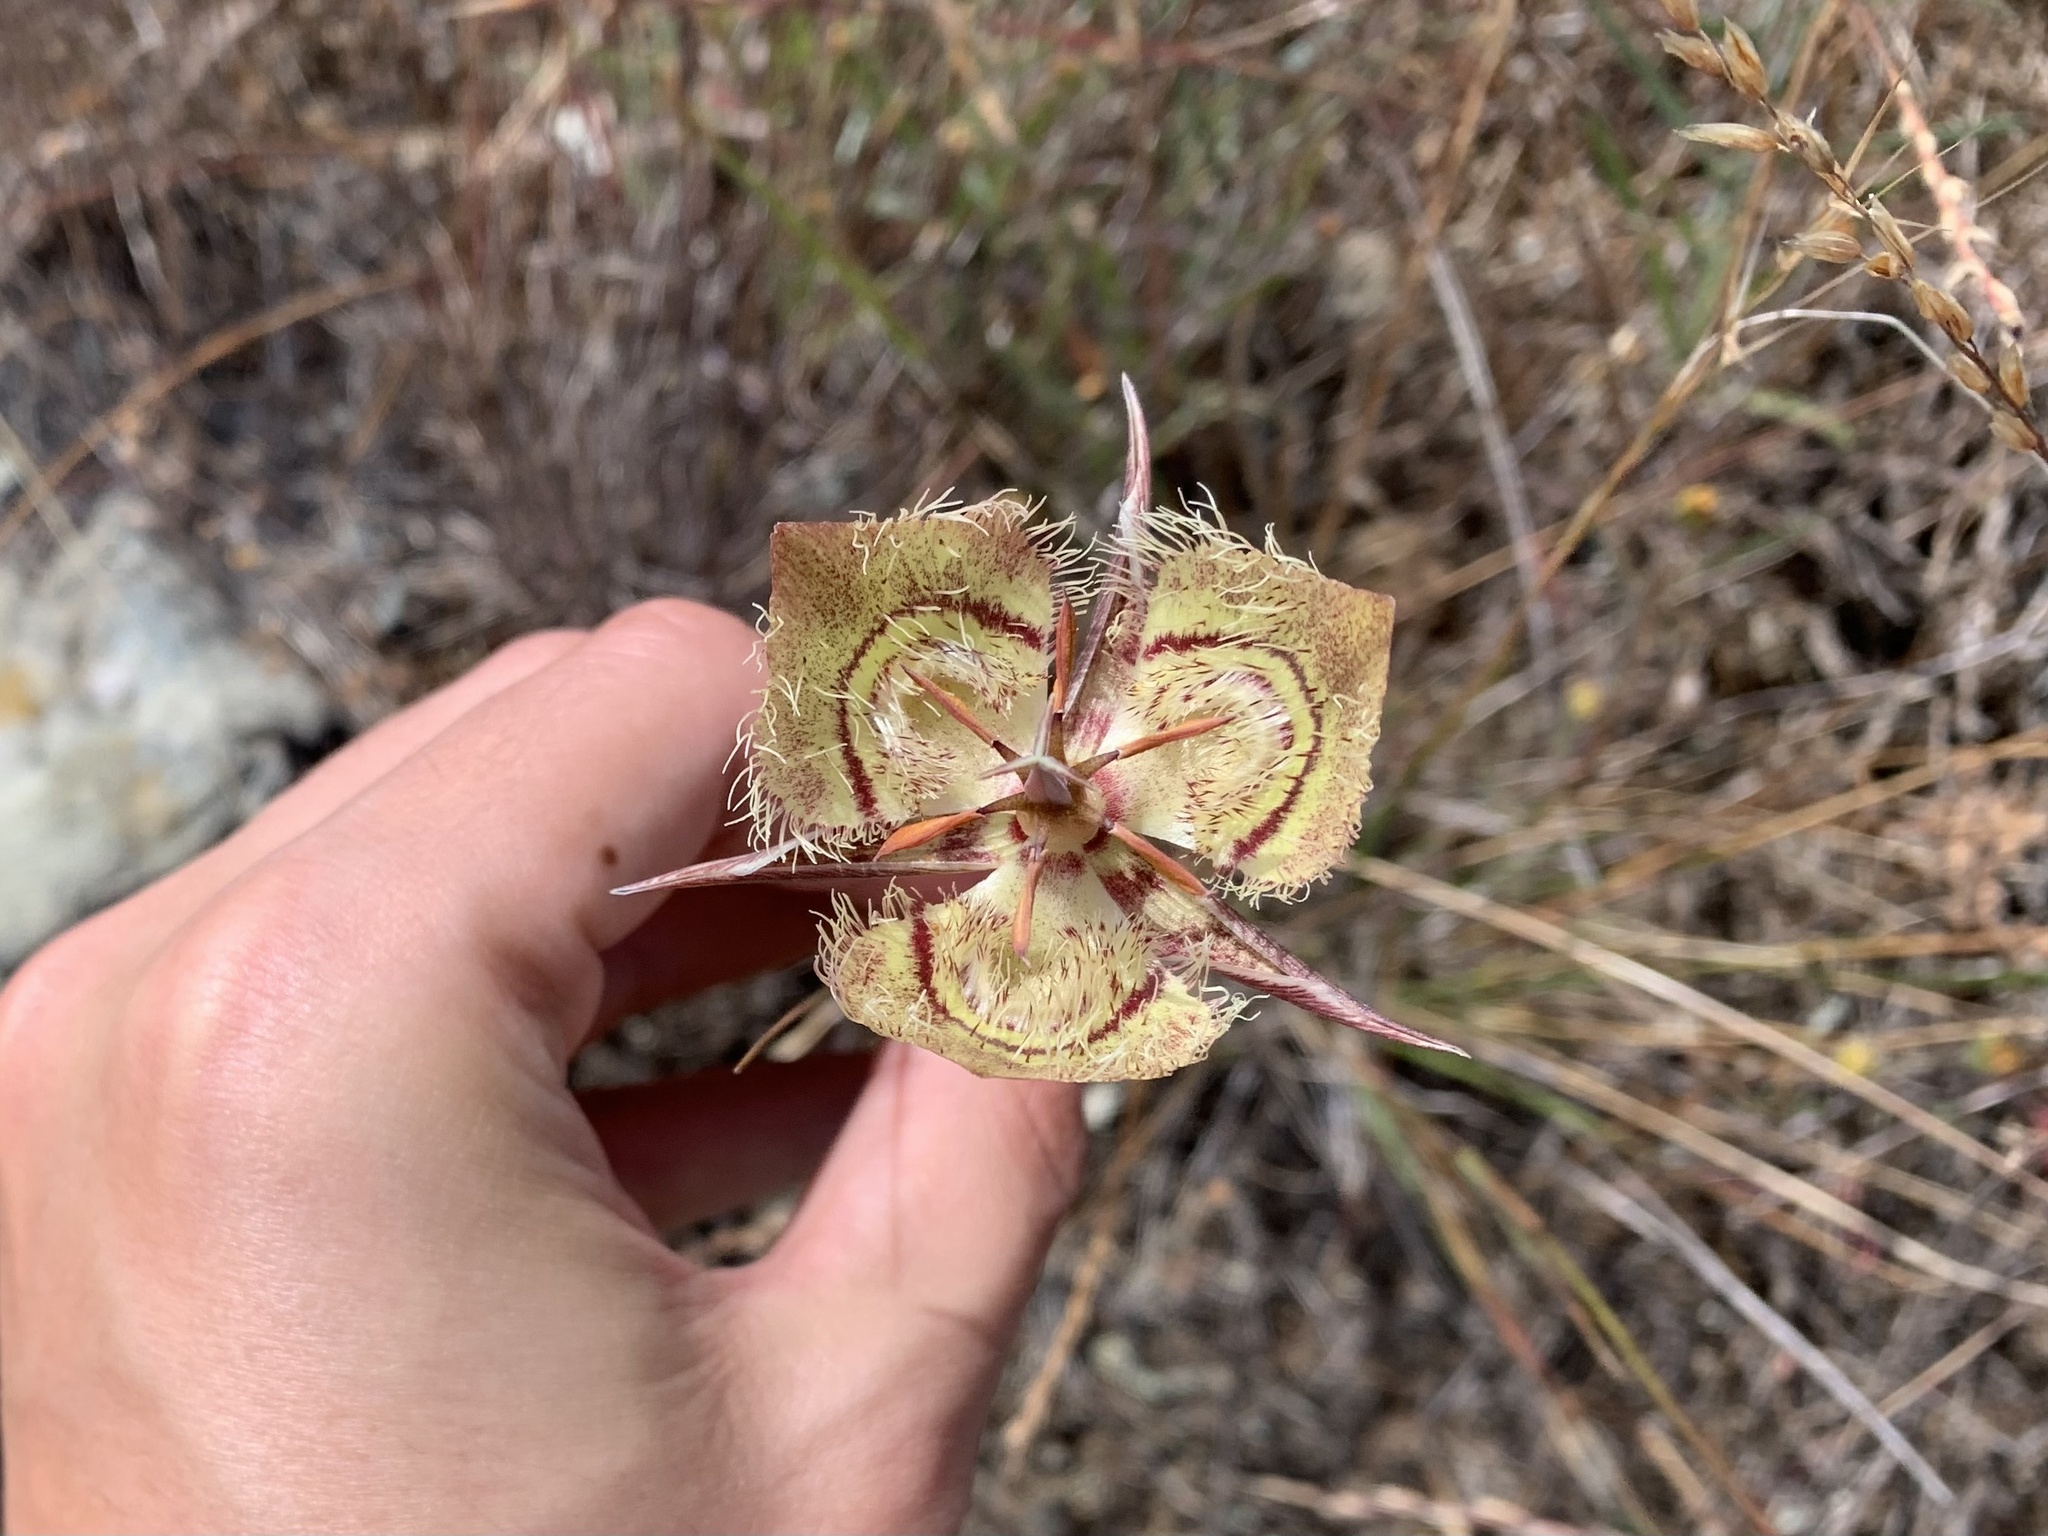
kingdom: Plantae
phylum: Tracheophyta
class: Liliopsida
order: Liliales
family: Liliaceae
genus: Calochortus
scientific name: Calochortus tiburonensis
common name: Tiburon mariposa-lily
